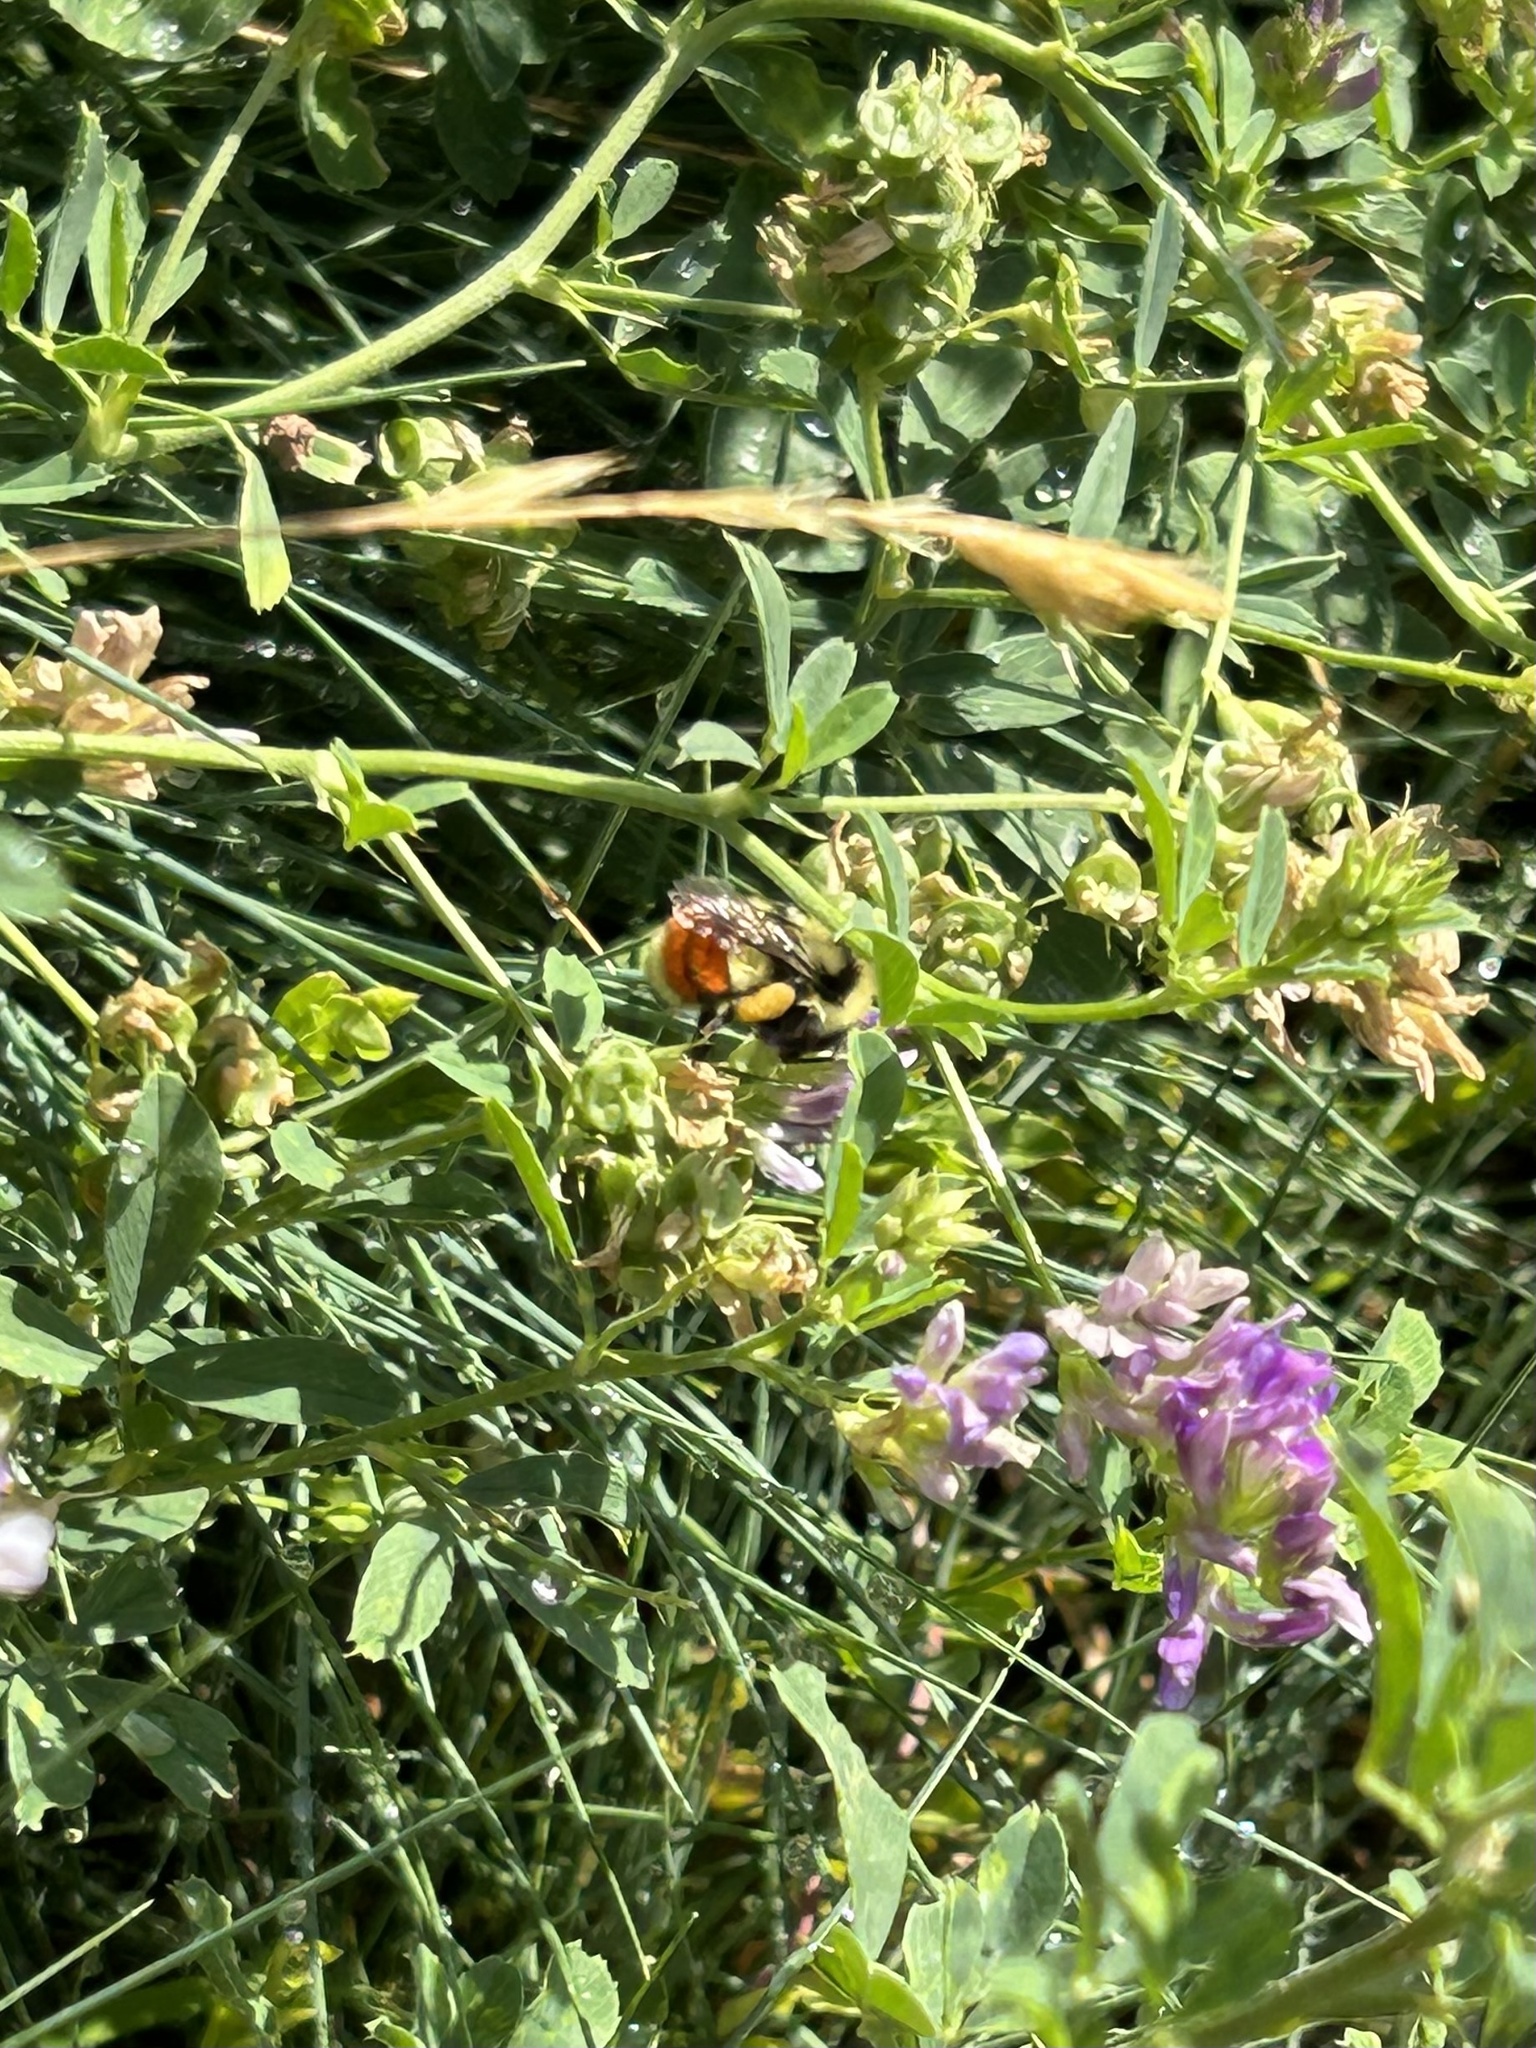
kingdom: Animalia
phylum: Arthropoda
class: Insecta
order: Hymenoptera
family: Apidae
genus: Bombus
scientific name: Bombus huntii
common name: Hunt bumble bee
